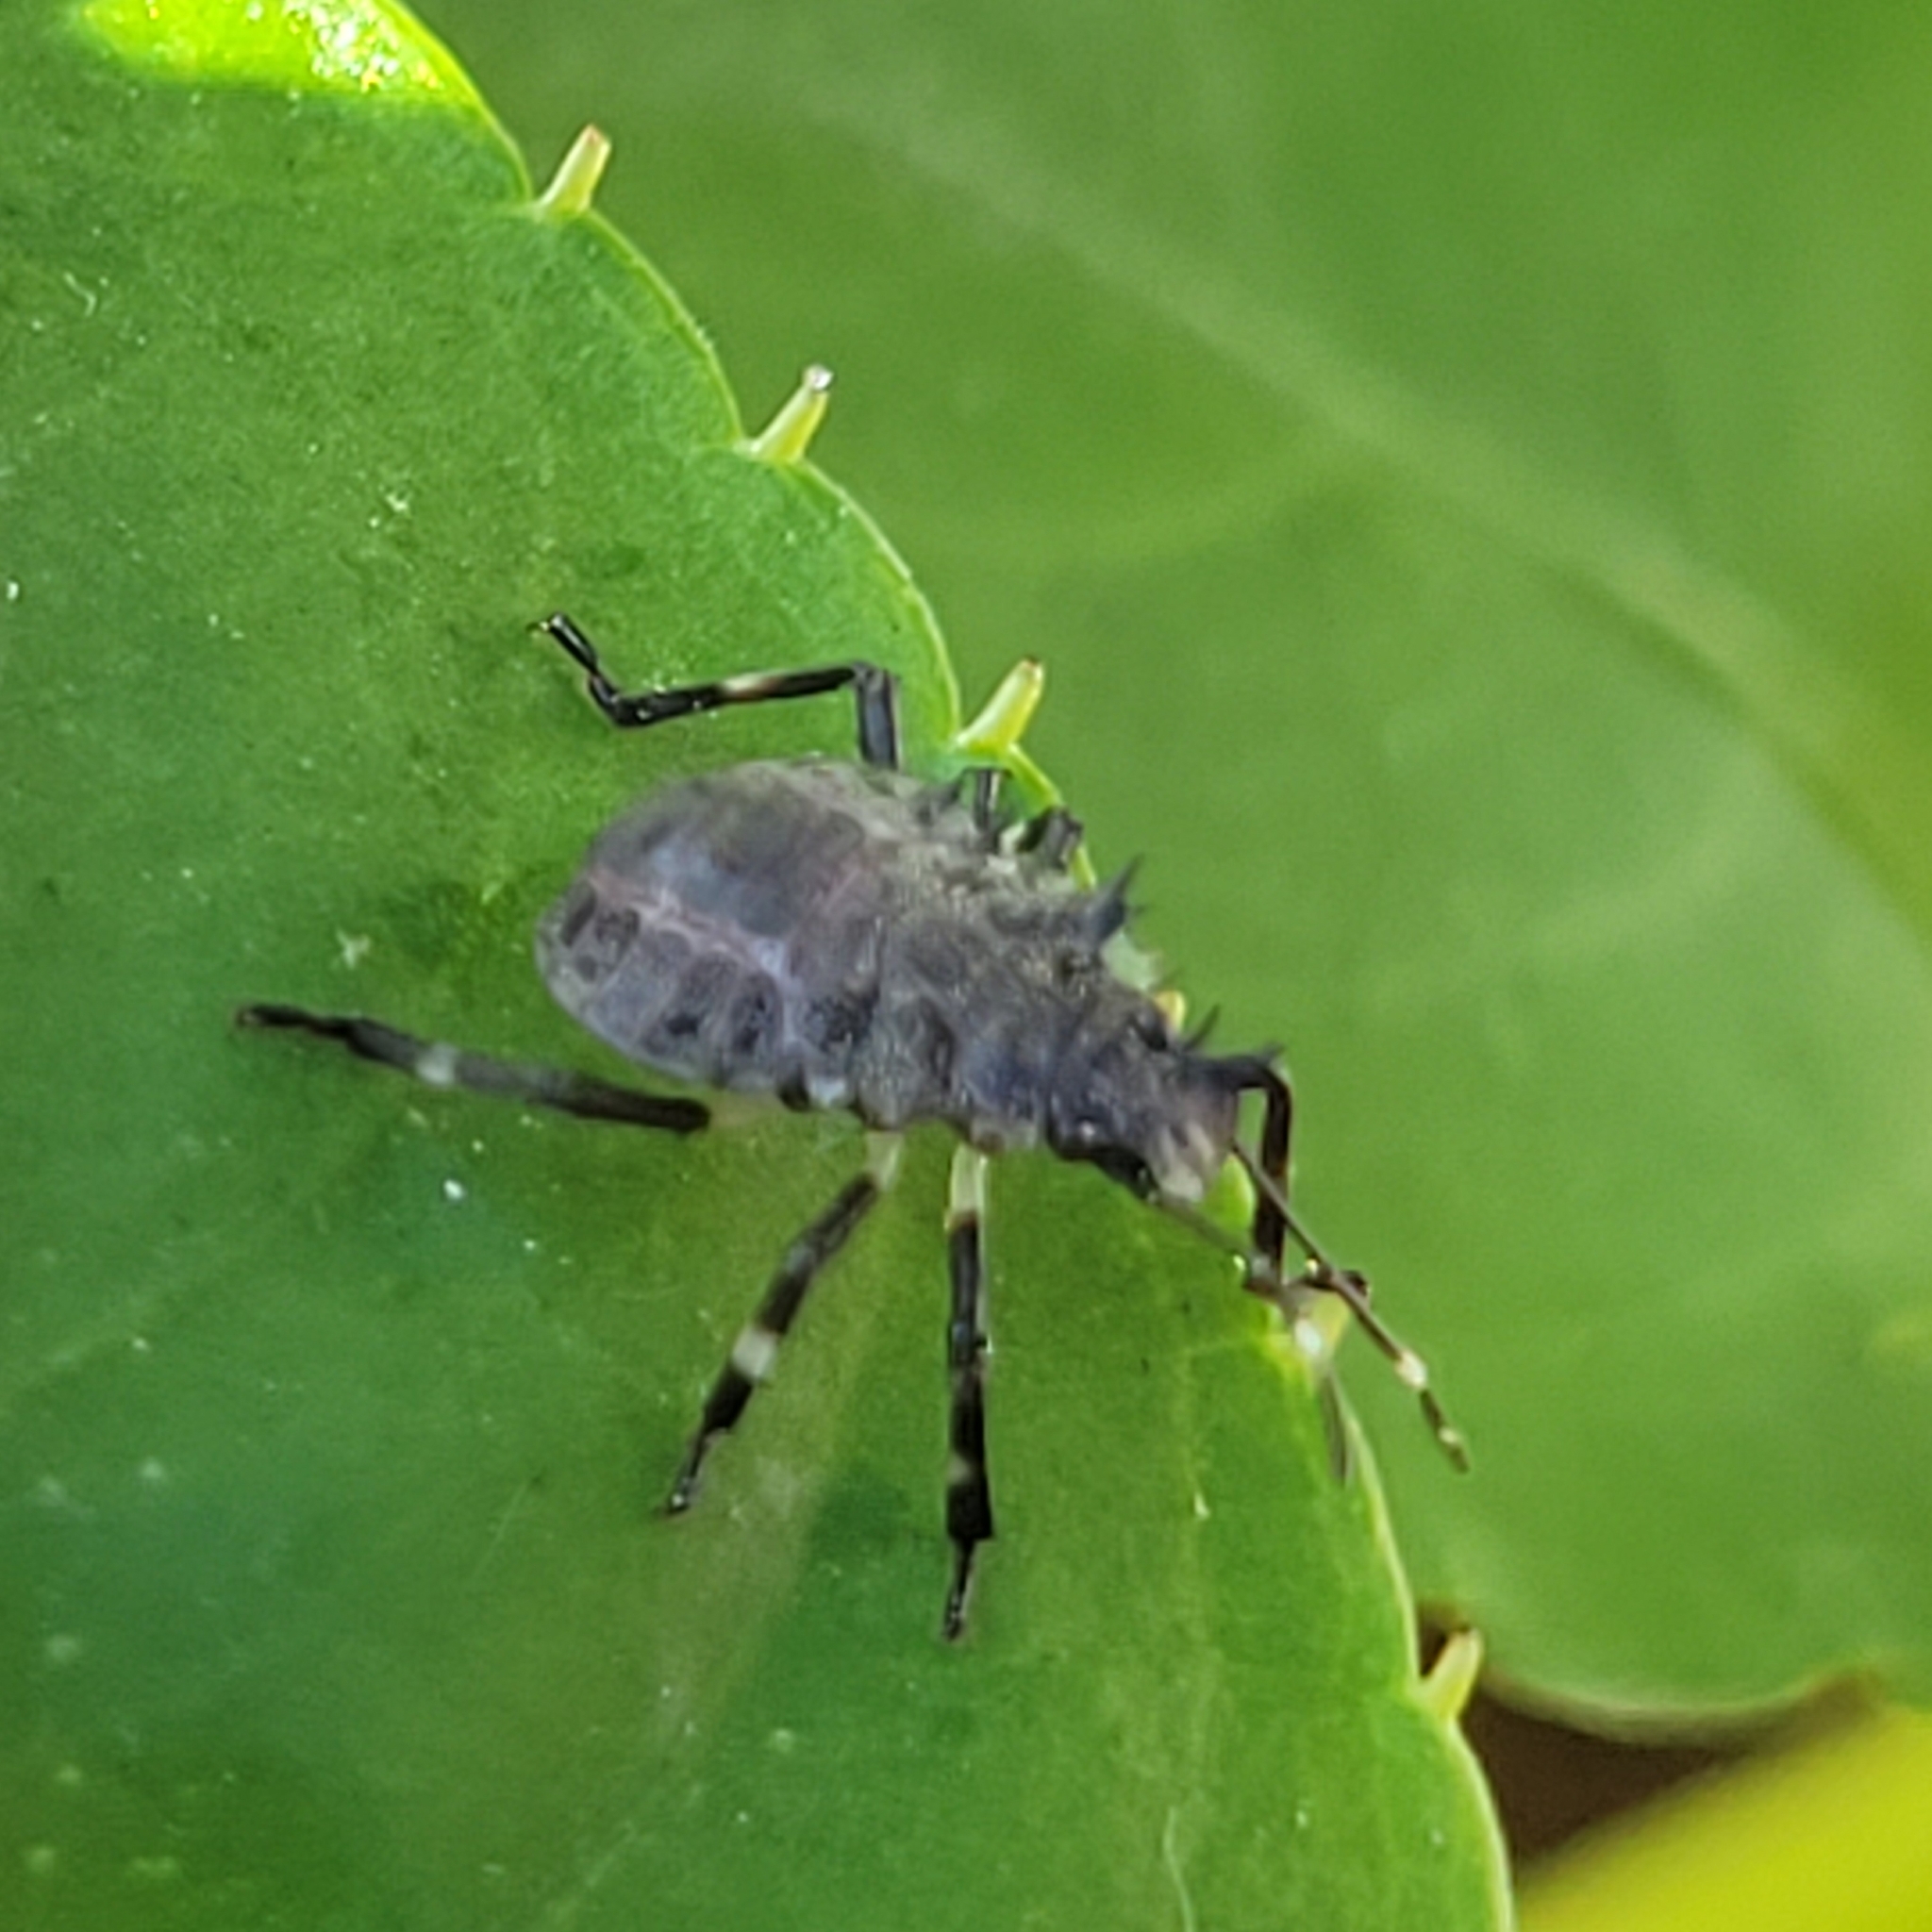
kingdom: Animalia
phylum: Arthropoda
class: Insecta
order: Hemiptera
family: Pentatomidae
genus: Halyomorpha
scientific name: Halyomorpha halys
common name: Brown marmorated stink bug
